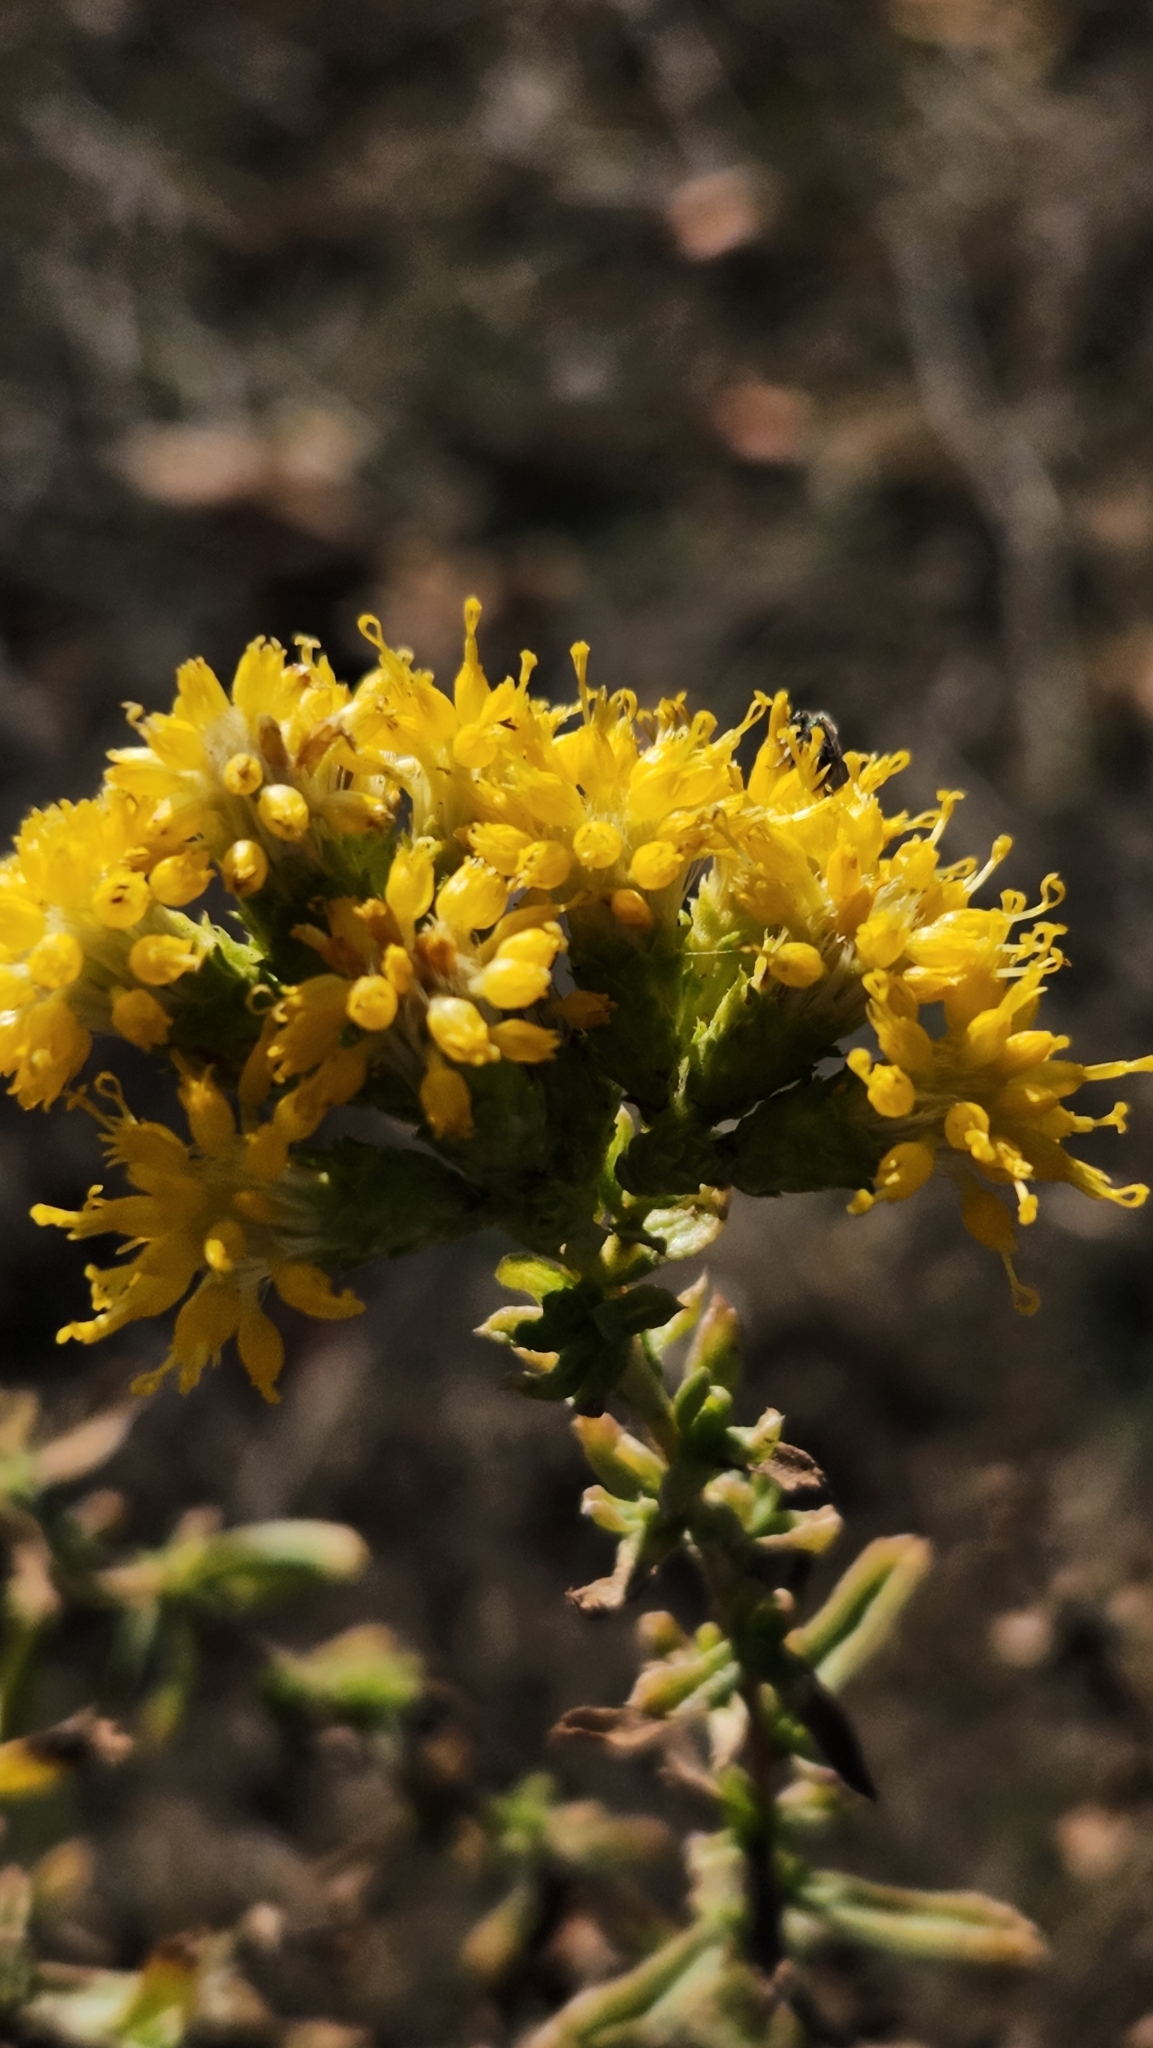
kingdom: Plantae
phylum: Tracheophyta
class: Magnoliopsida
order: Asterales
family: Asteraceae
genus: Isocoma
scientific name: Isocoma menziesii
